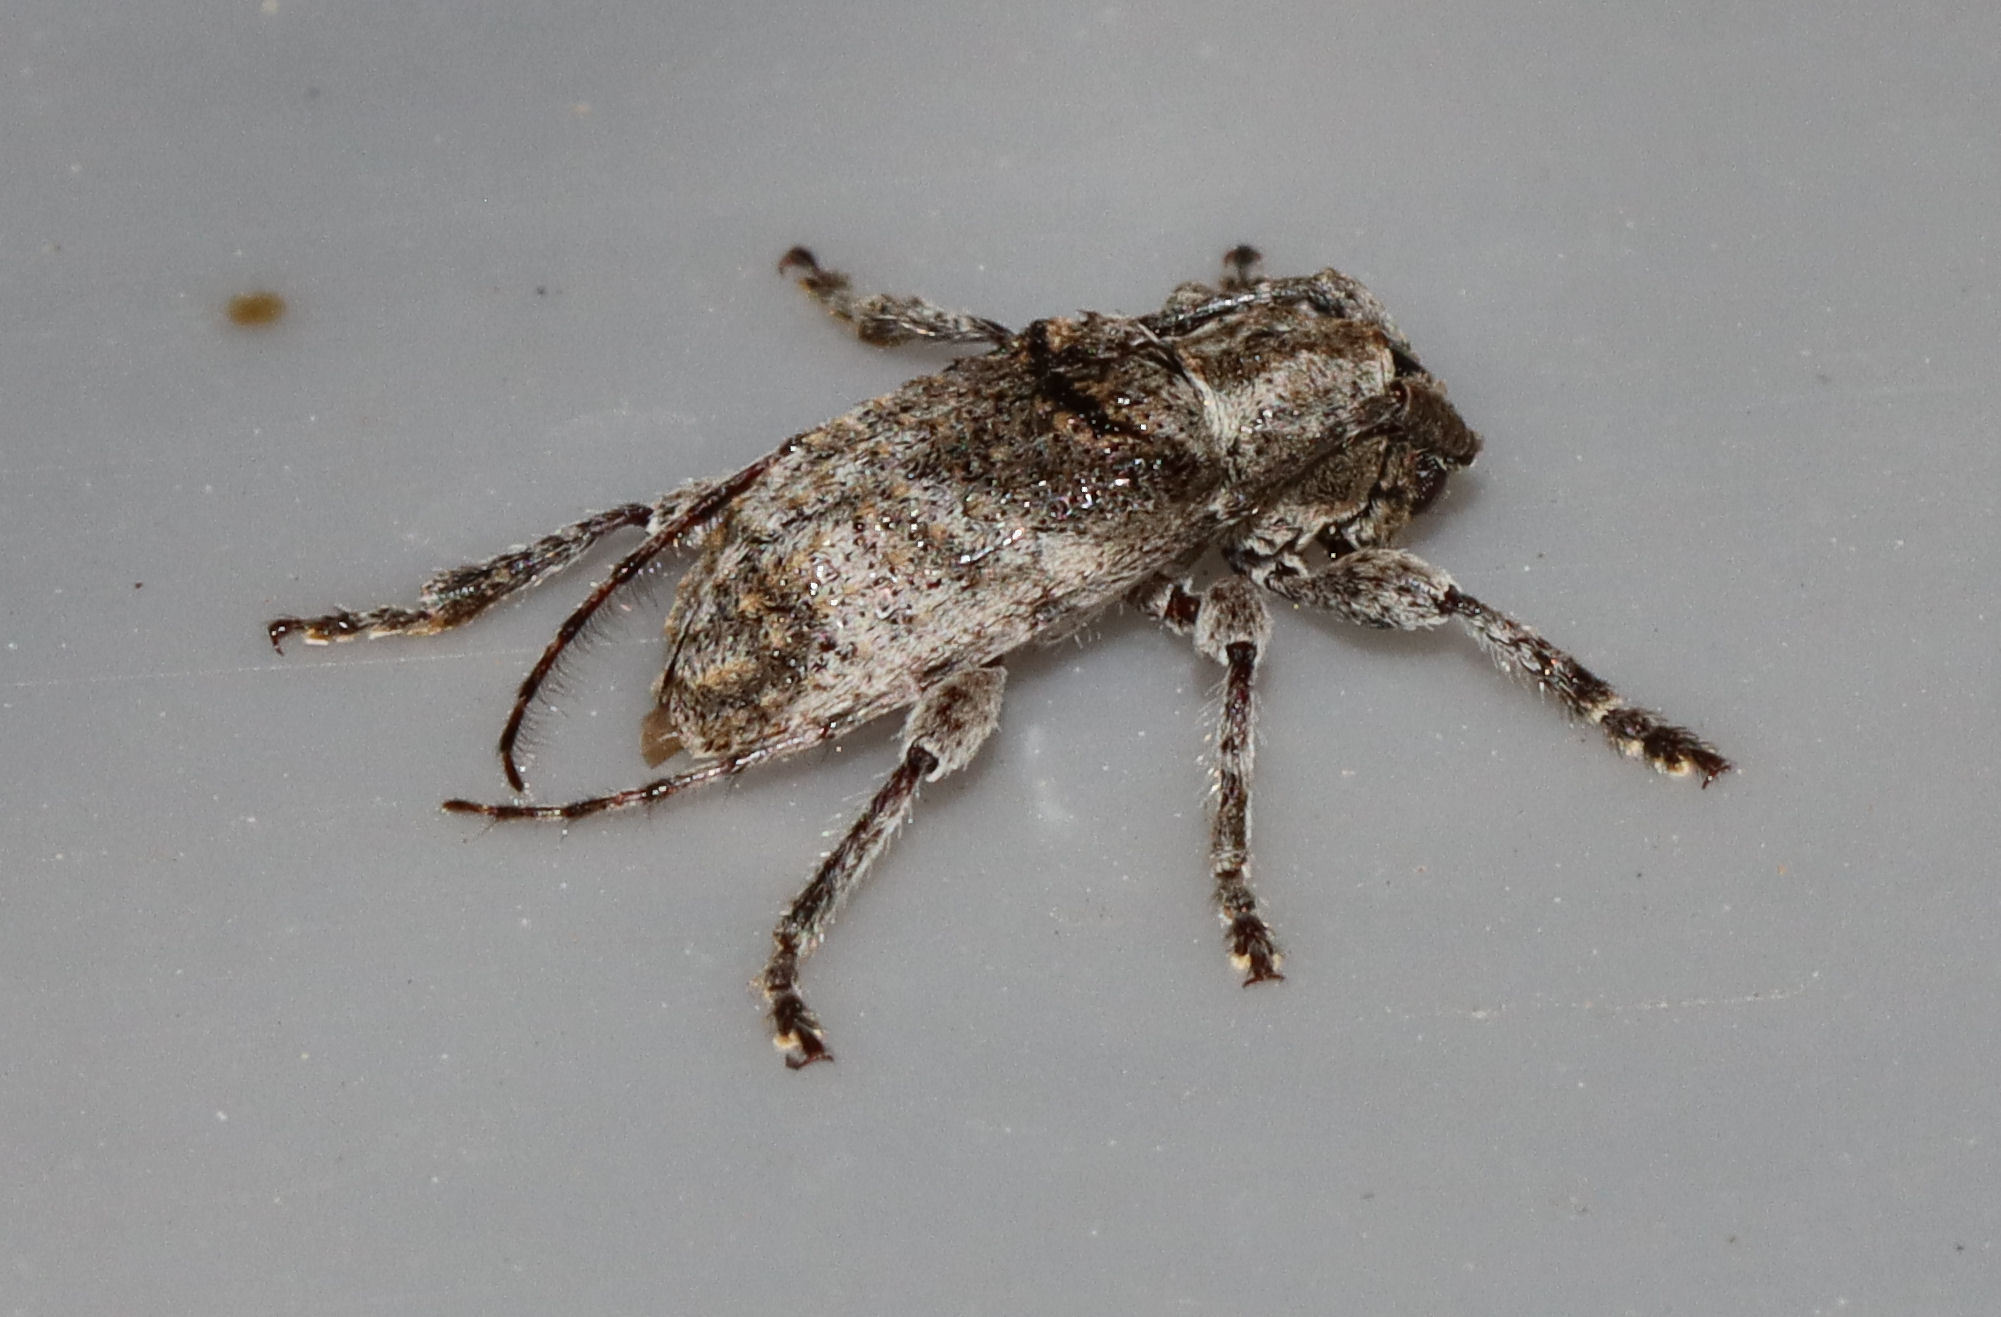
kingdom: Animalia
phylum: Arthropoda
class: Insecta
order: Coleoptera
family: Cerambycidae
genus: Ecyrus
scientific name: Ecyrus dasycerus
